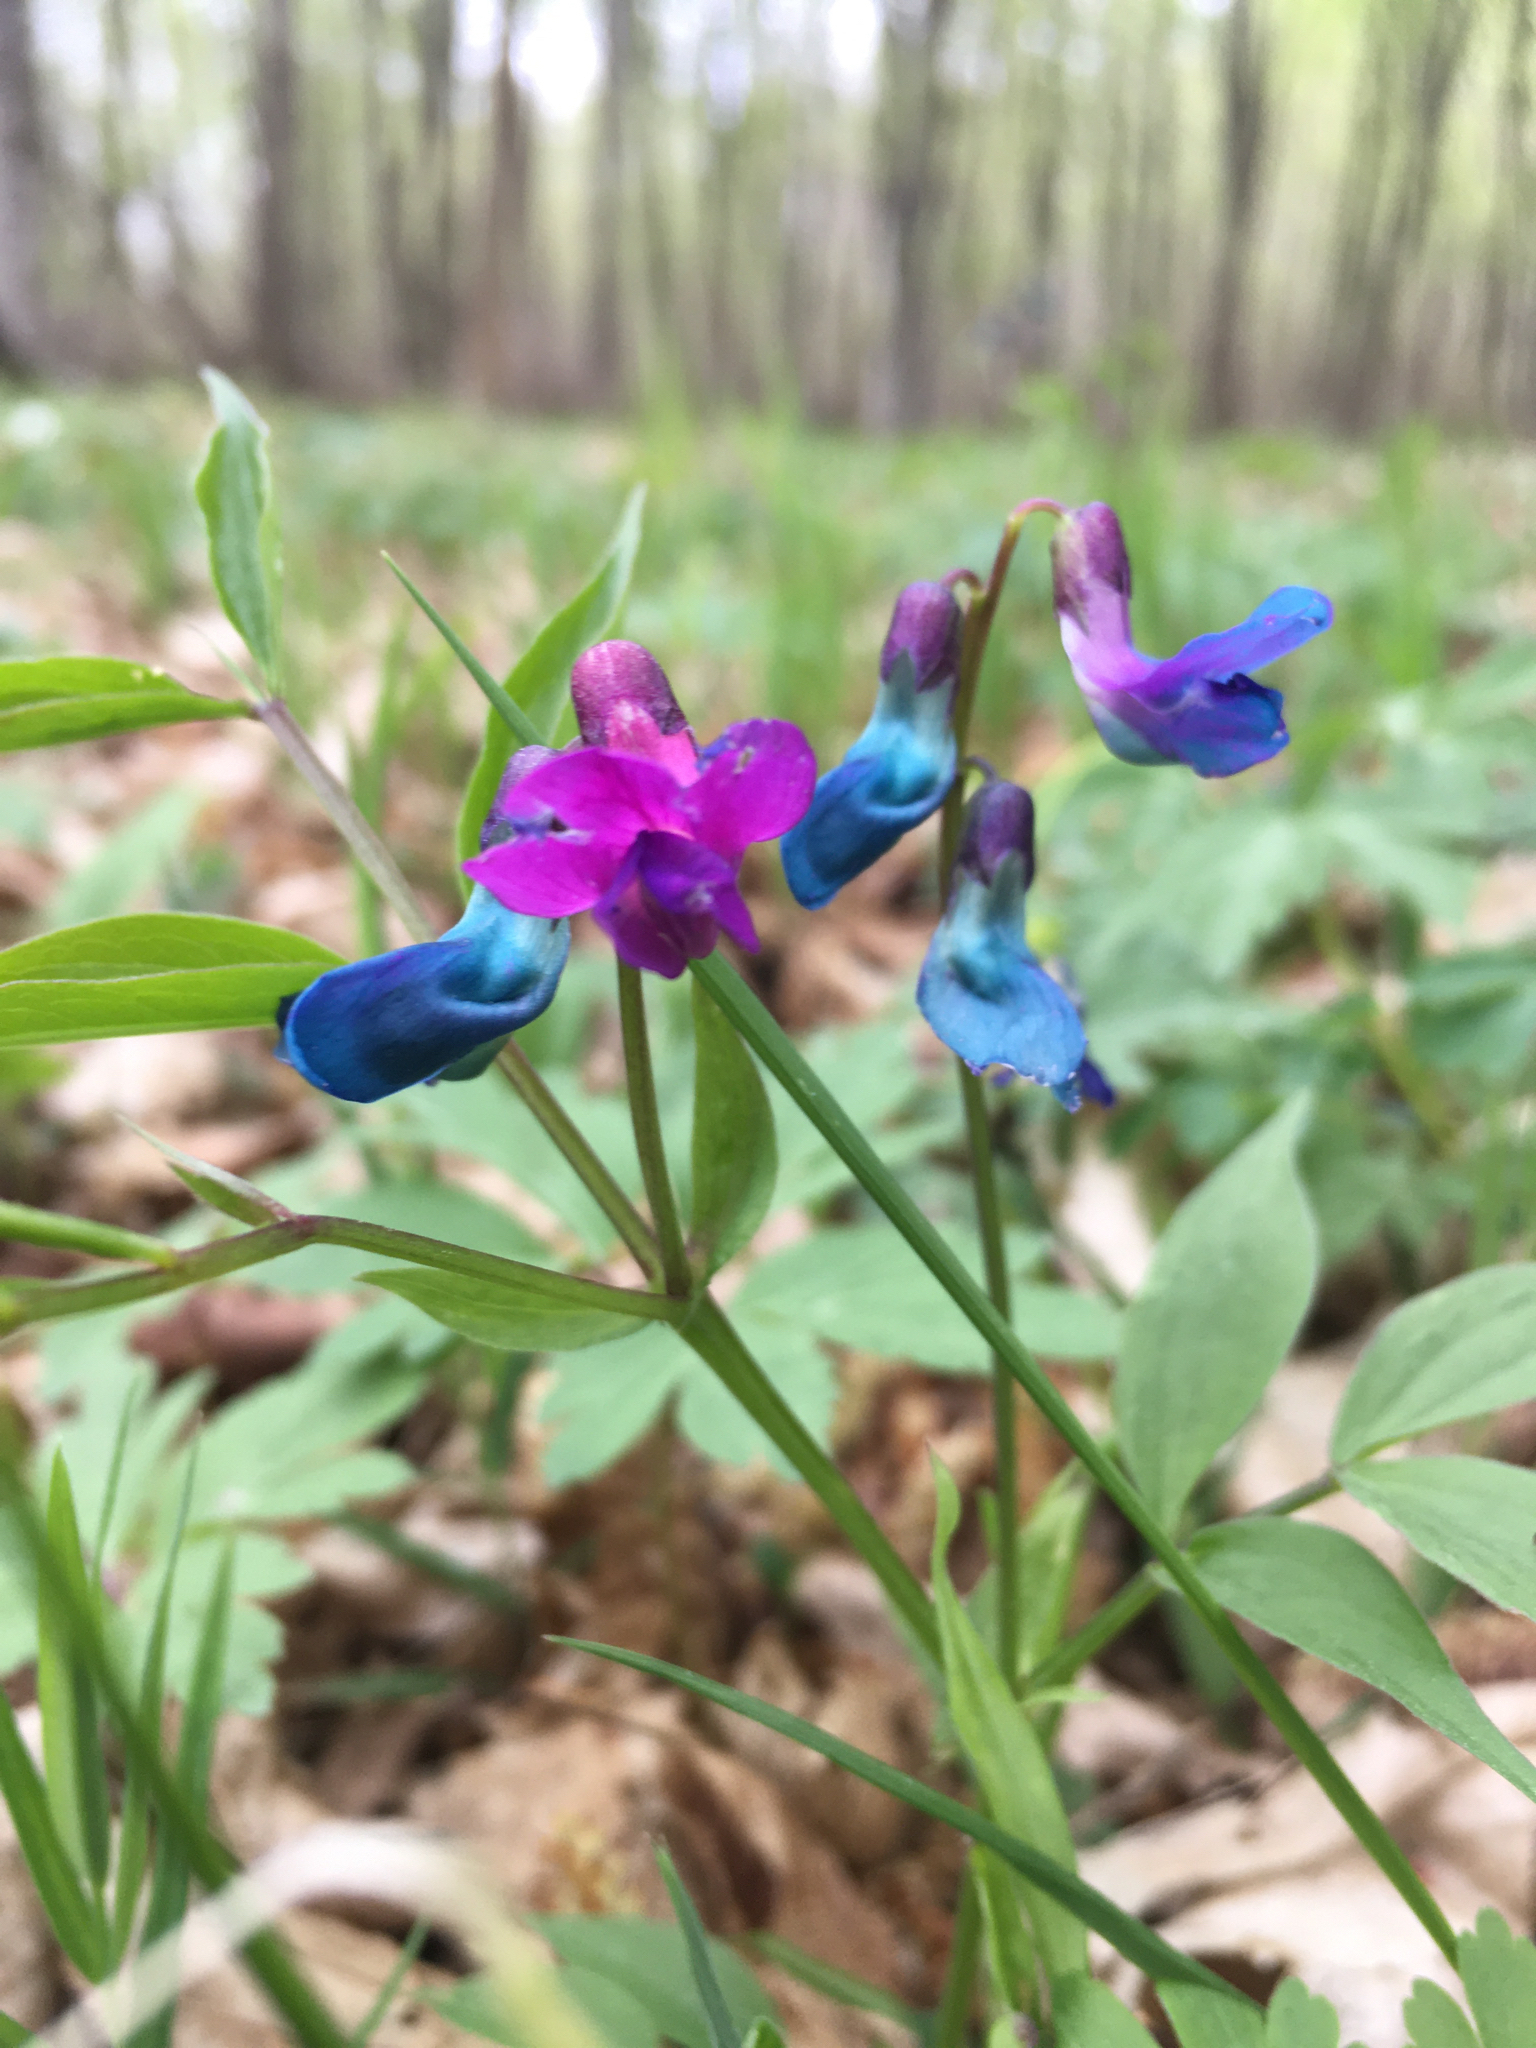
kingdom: Plantae
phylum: Tracheophyta
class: Magnoliopsida
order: Fabales
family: Fabaceae
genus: Lathyrus
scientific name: Lathyrus vernus
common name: Spring pea
